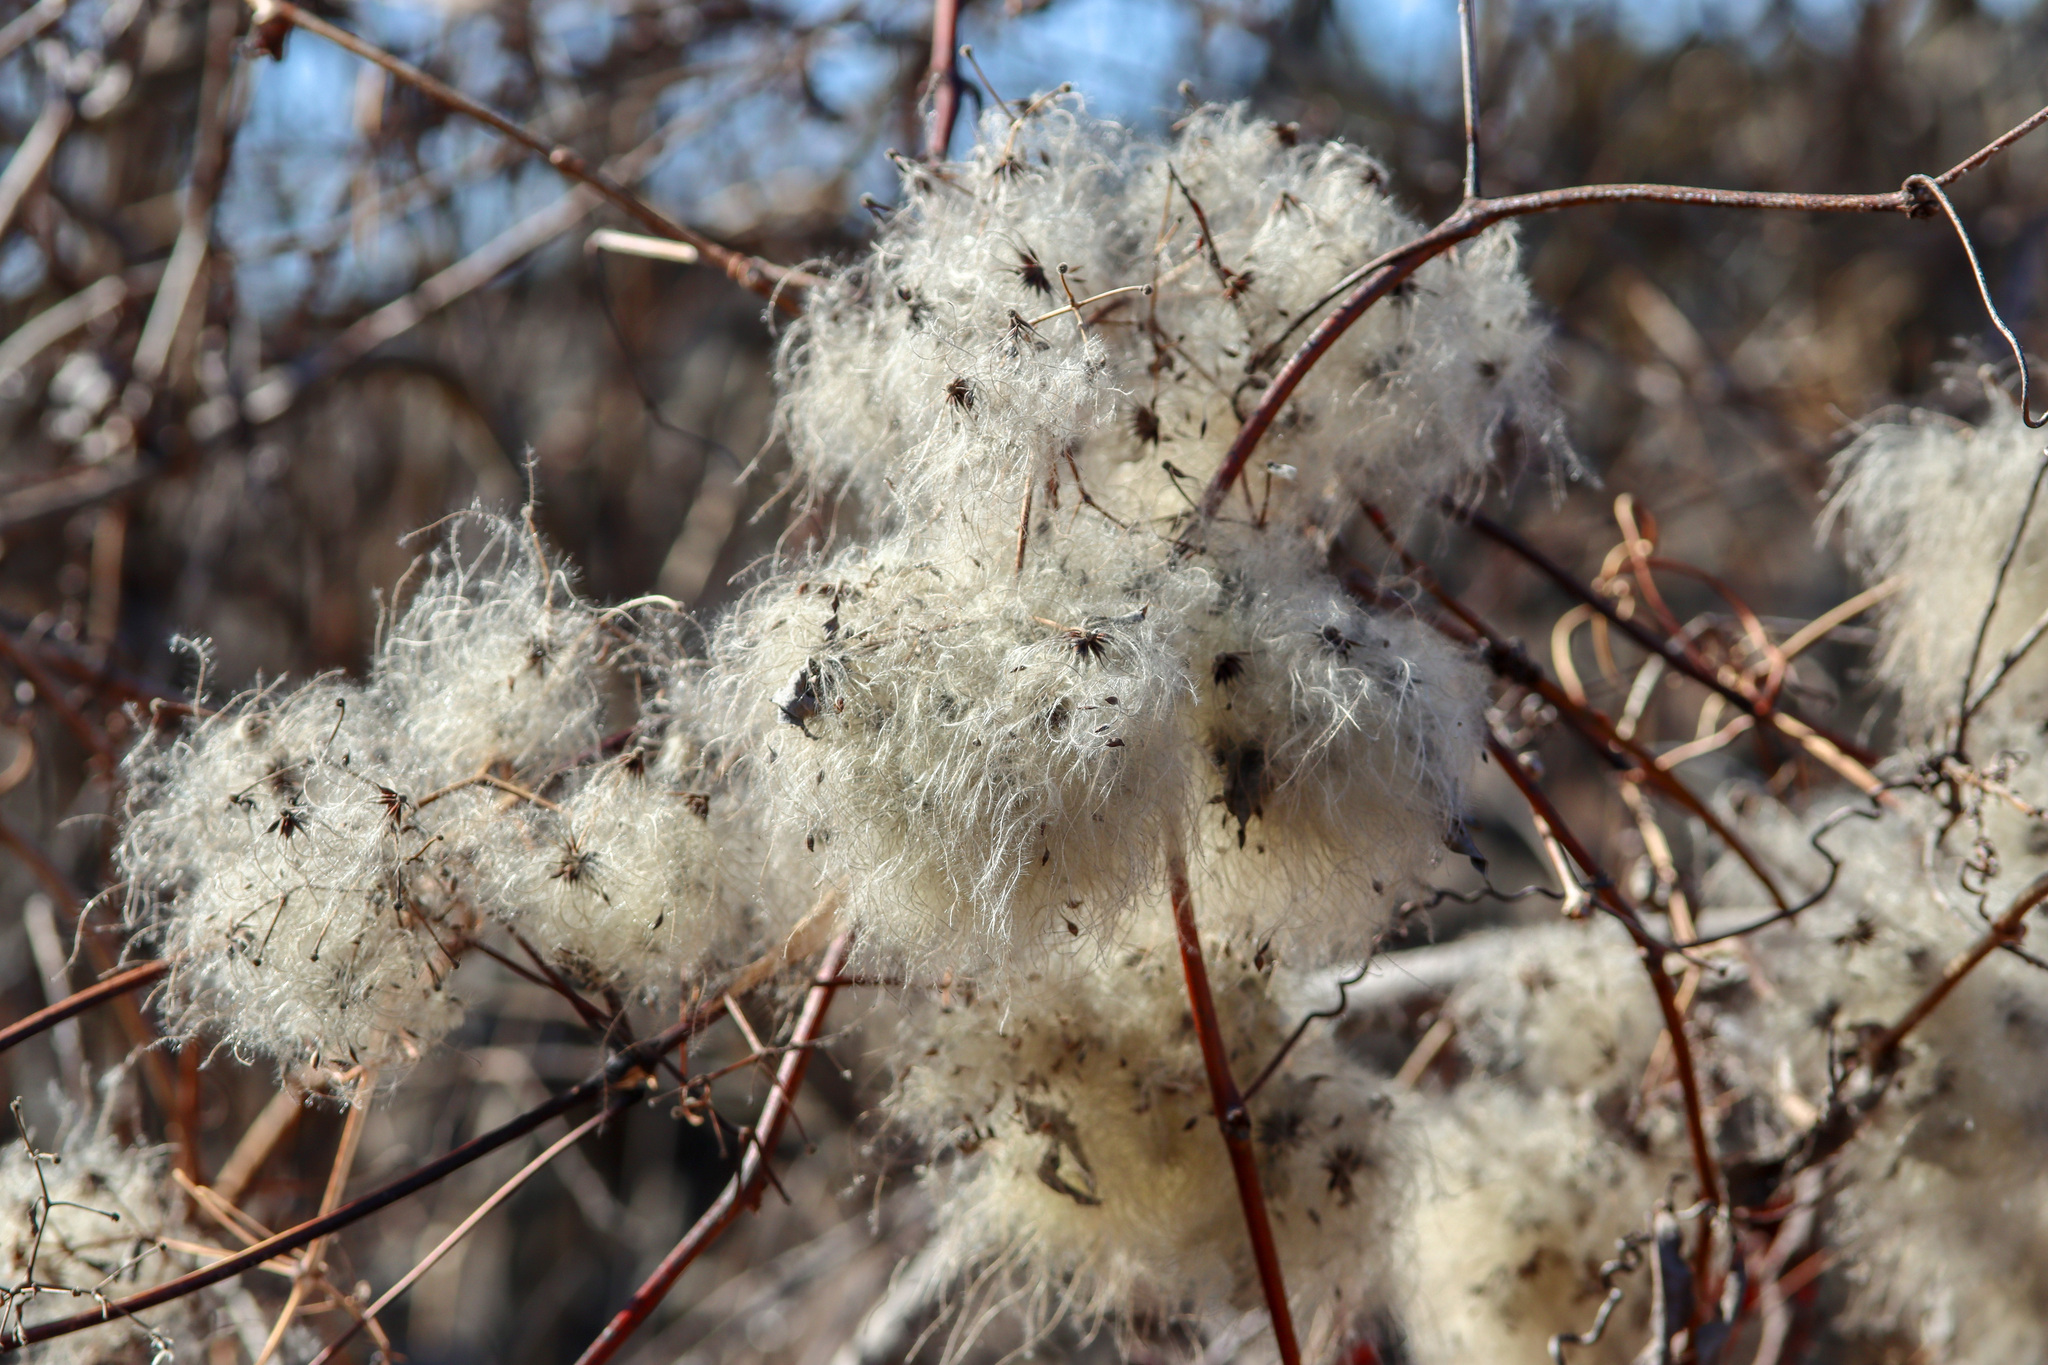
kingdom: Plantae
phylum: Tracheophyta
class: Magnoliopsida
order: Ranunculales
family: Ranunculaceae
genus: Clematis
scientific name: Clematis virginiana
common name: Virgin's-bower
